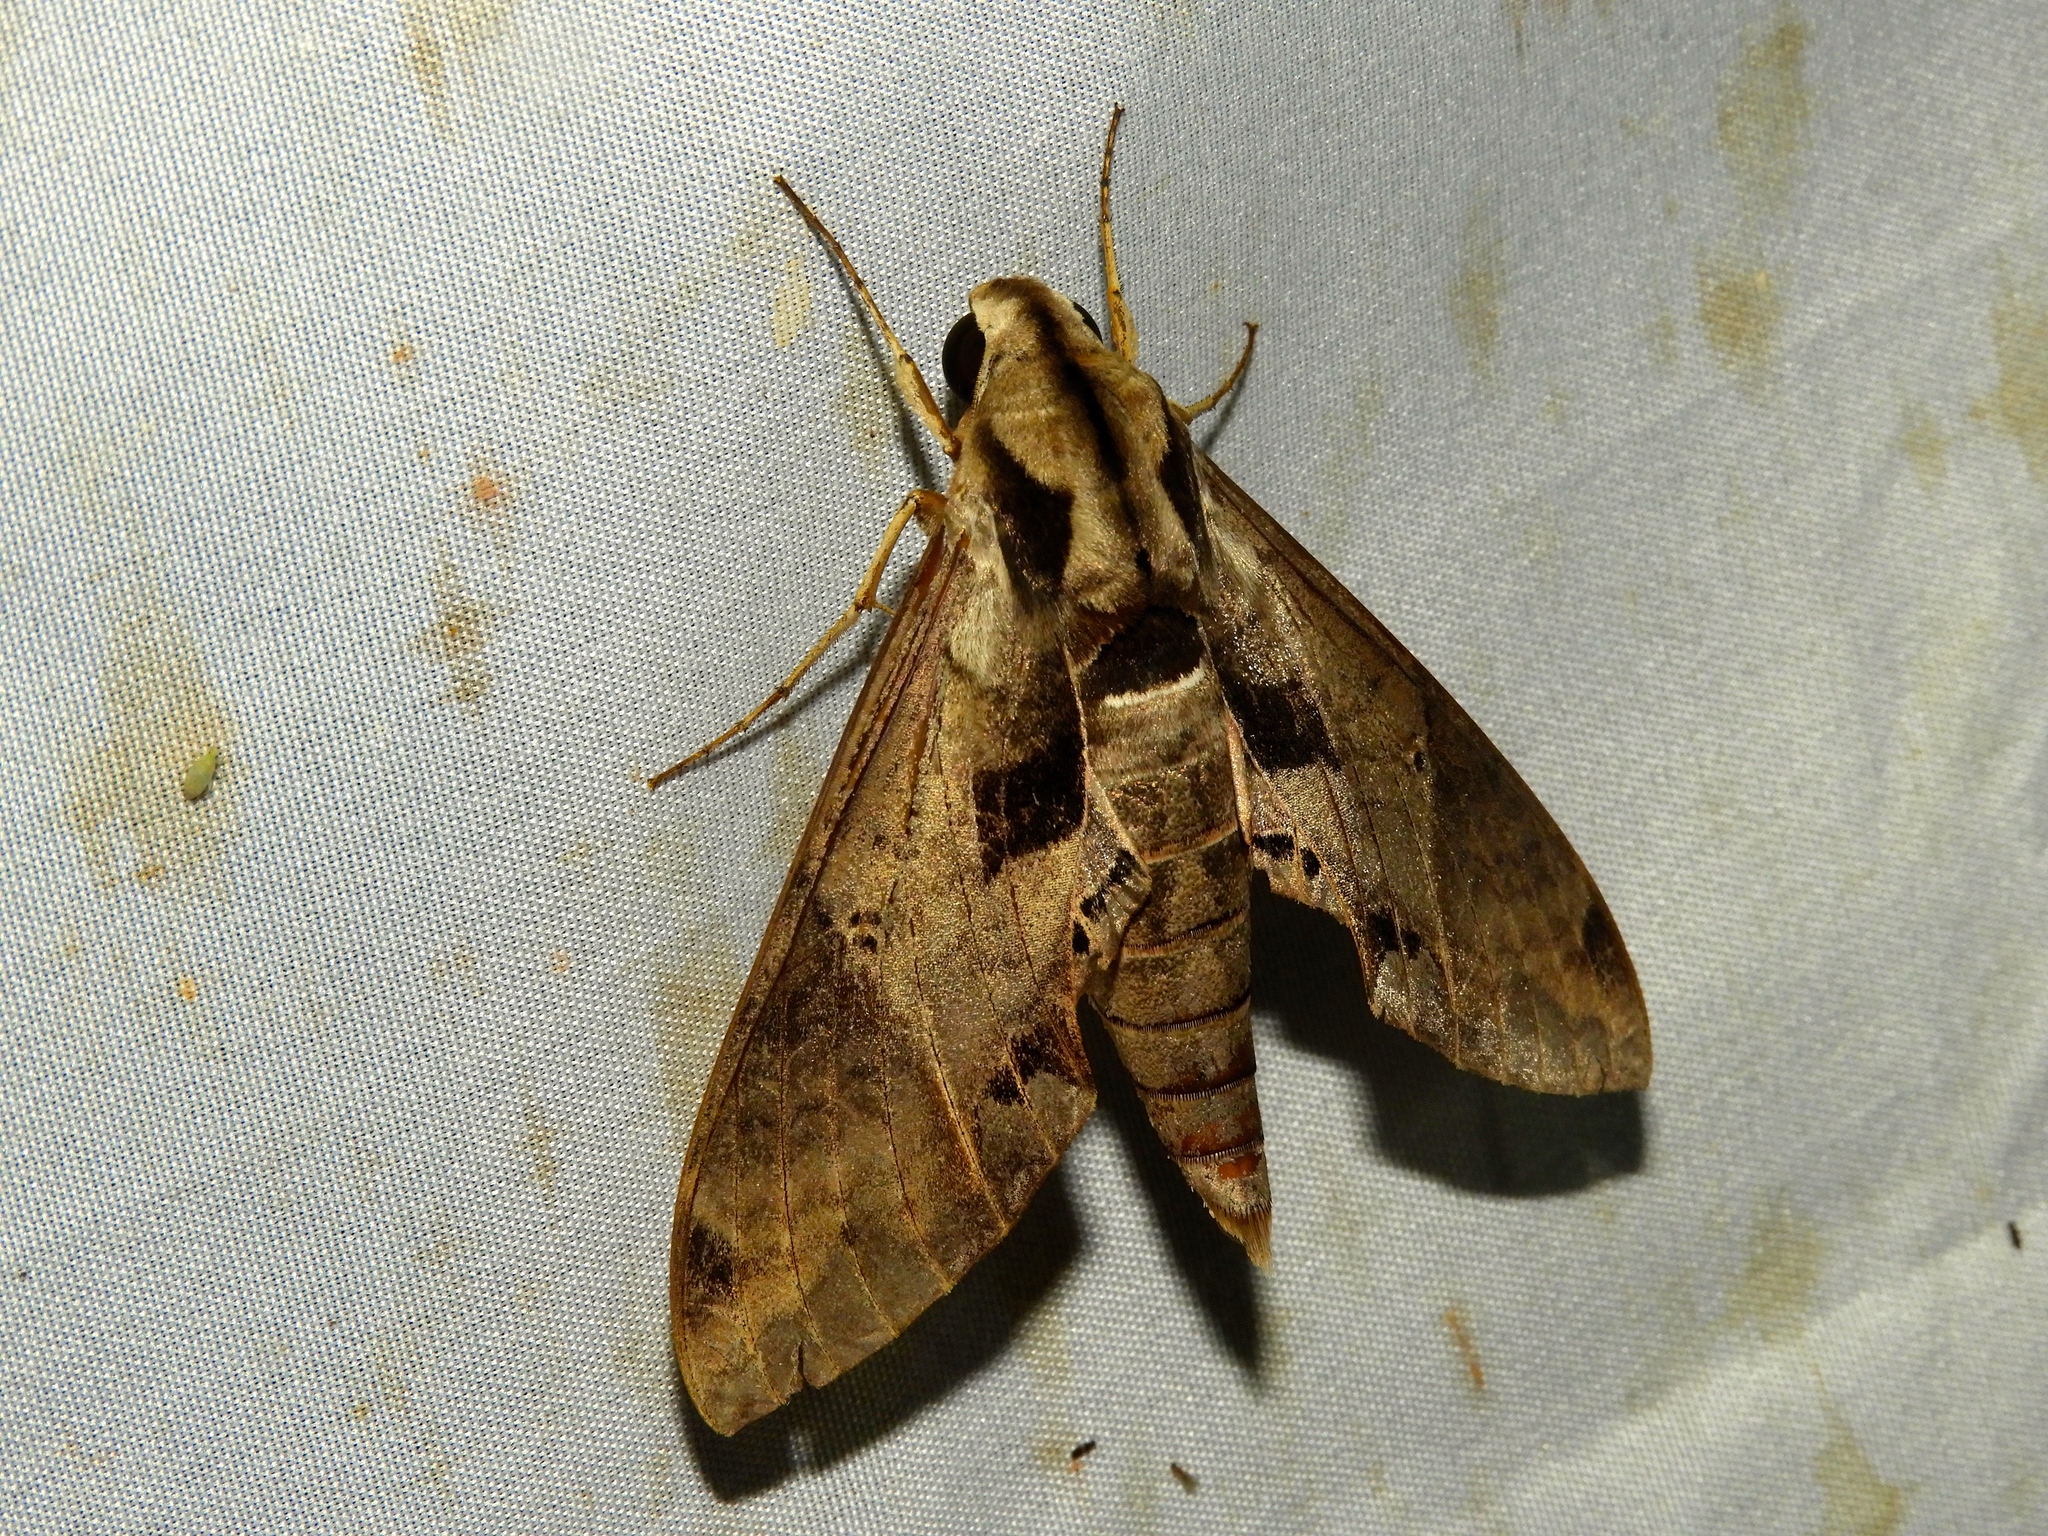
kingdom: Animalia
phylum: Arthropoda
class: Insecta
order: Lepidoptera
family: Sphingidae
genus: Eumorpha
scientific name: Eumorpha satellitia
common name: Satellite sphinx
